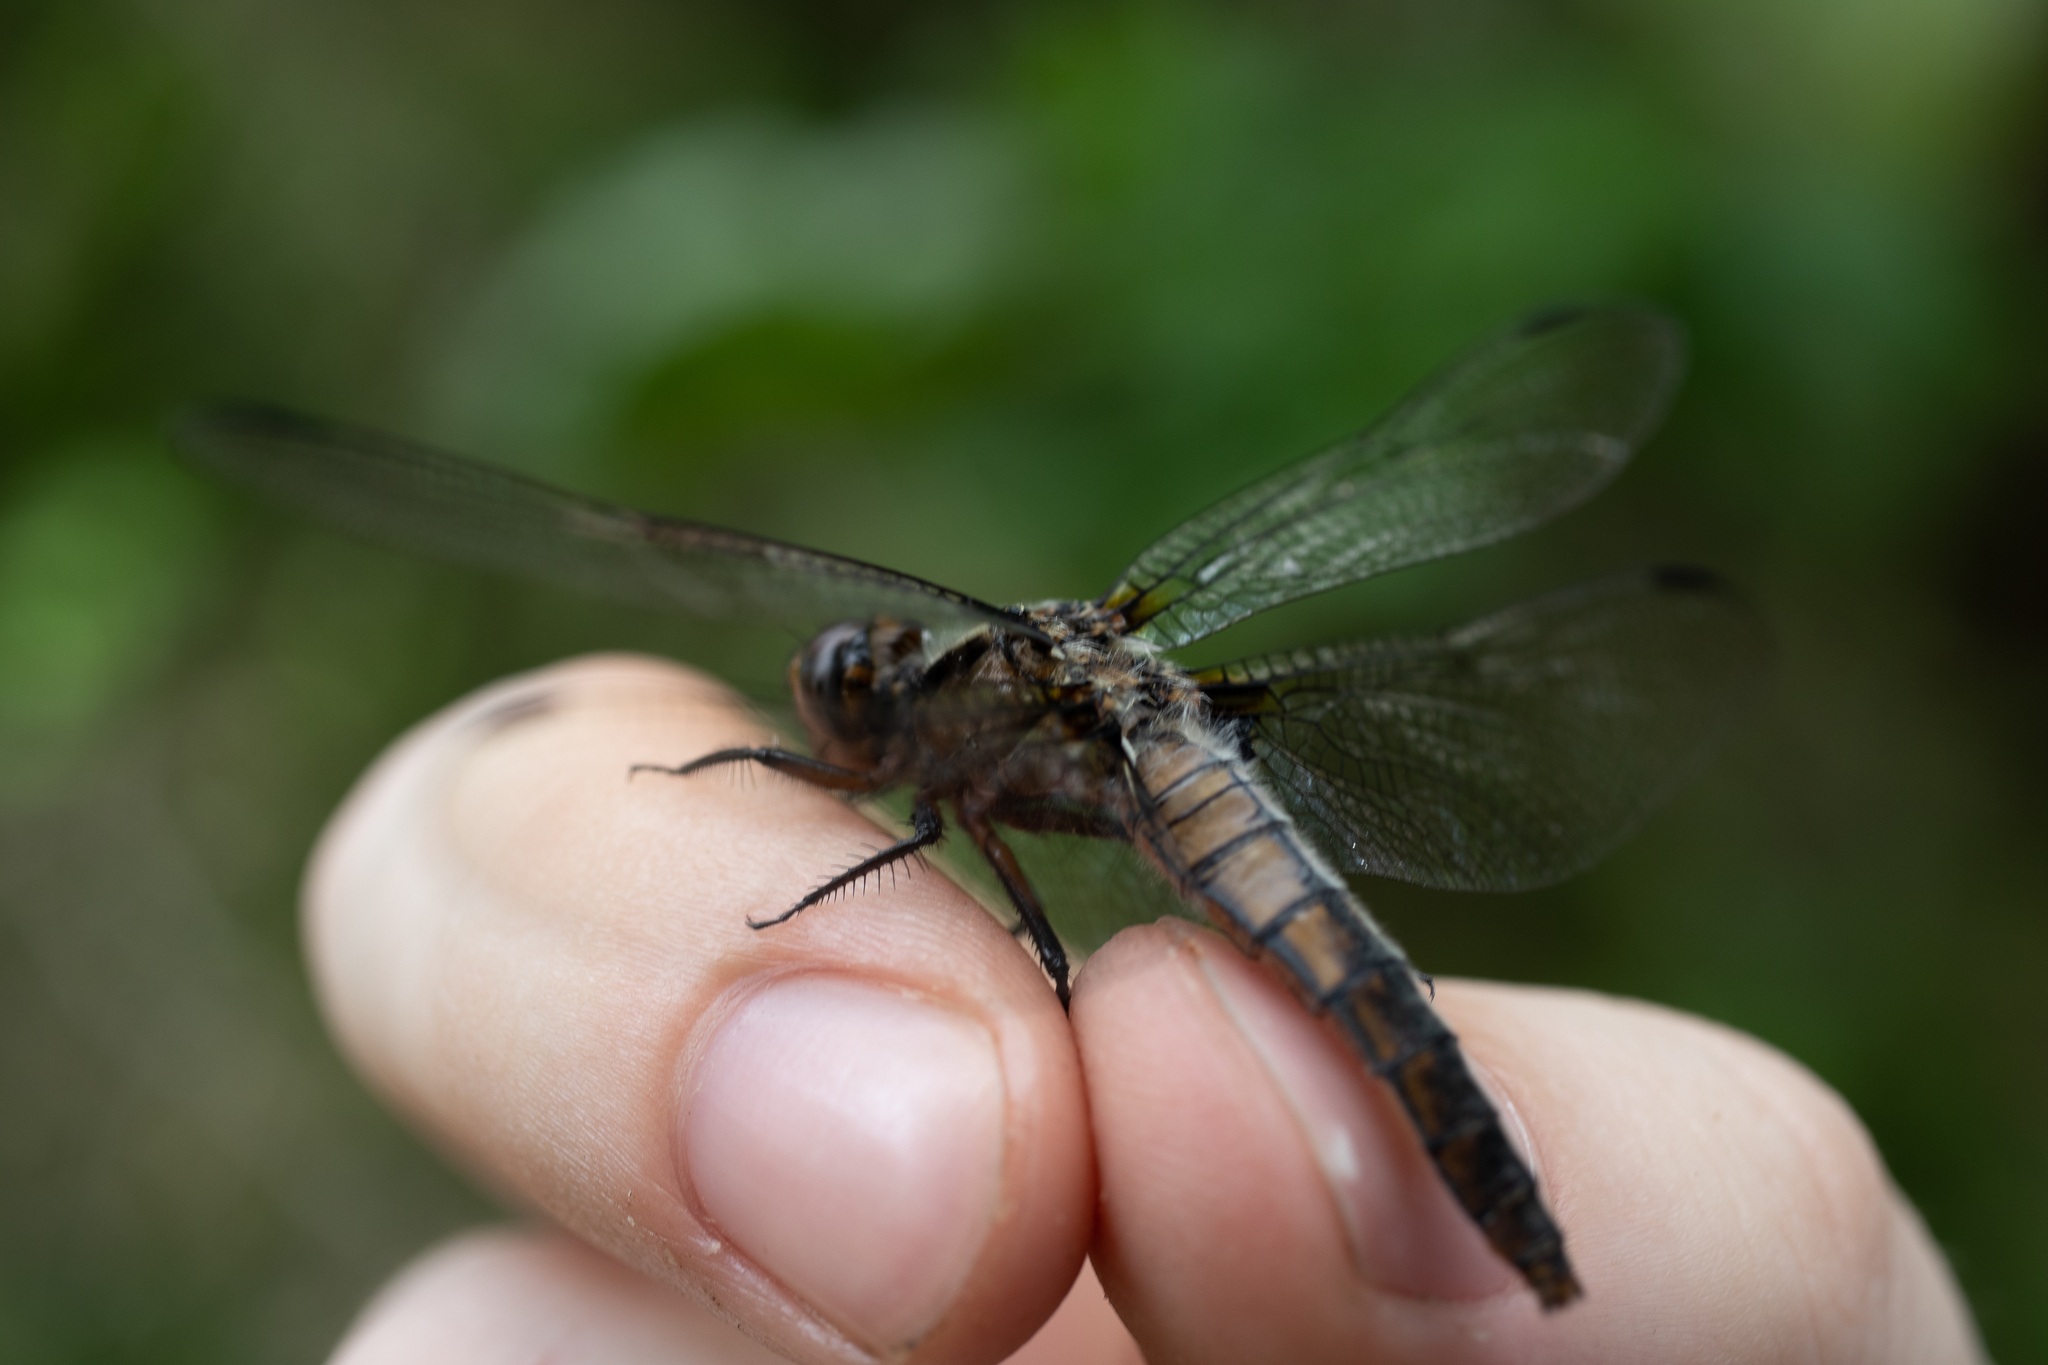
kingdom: Animalia
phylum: Arthropoda
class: Insecta
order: Odonata
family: Libellulidae
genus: Ladona
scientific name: Ladona julia
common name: Chalk-fronted corporal
